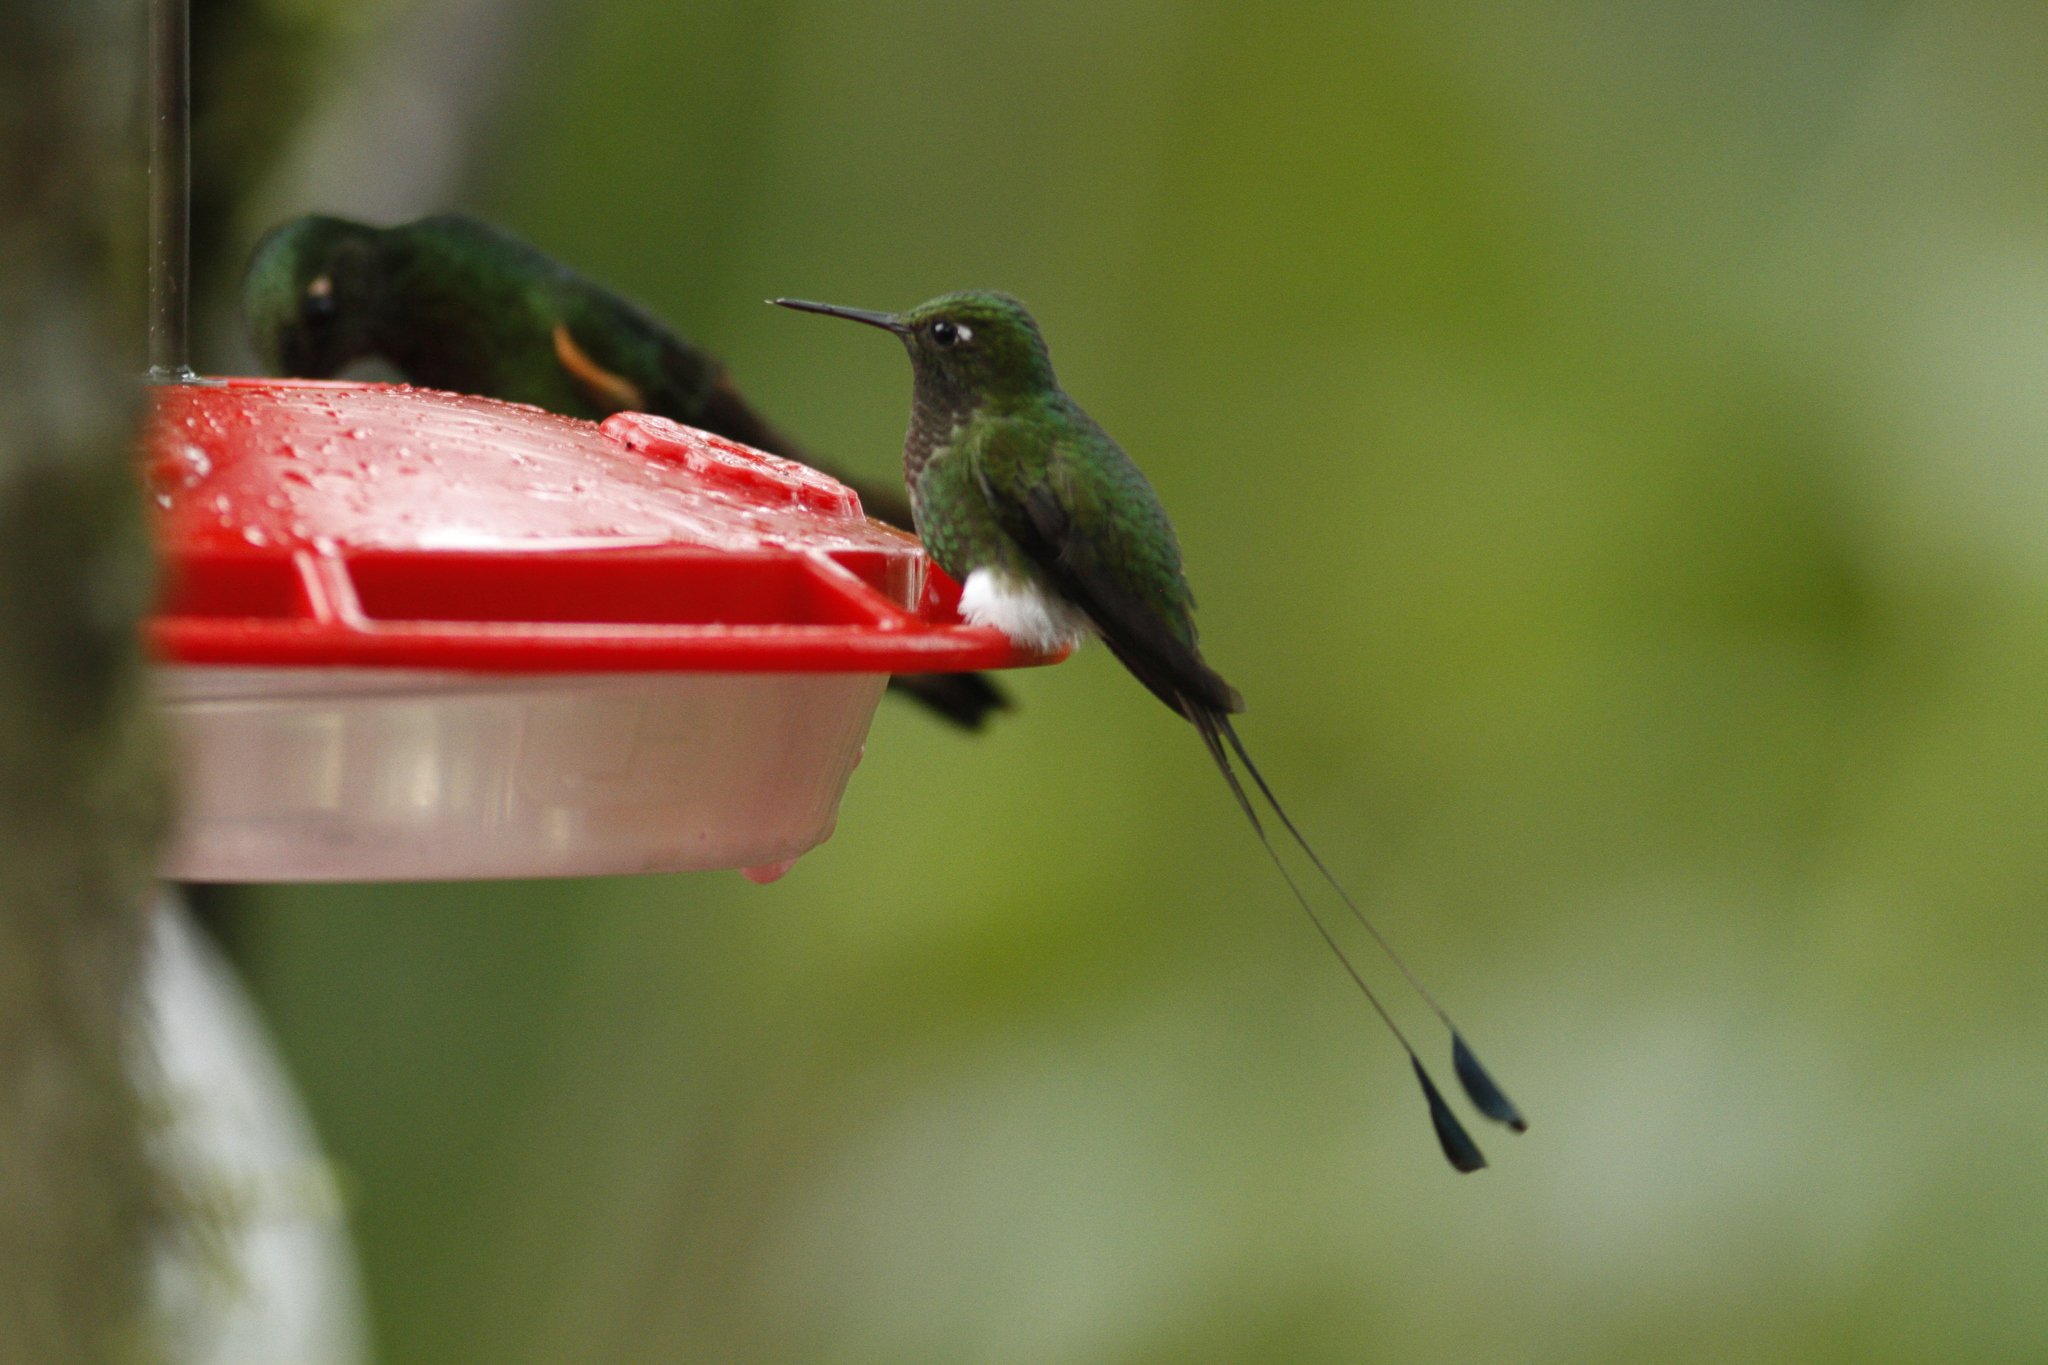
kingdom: Animalia
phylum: Chordata
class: Aves
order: Apodiformes
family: Trochilidae
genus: Ocreatus
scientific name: Ocreatus underwoodii
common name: Booted racket-tail
